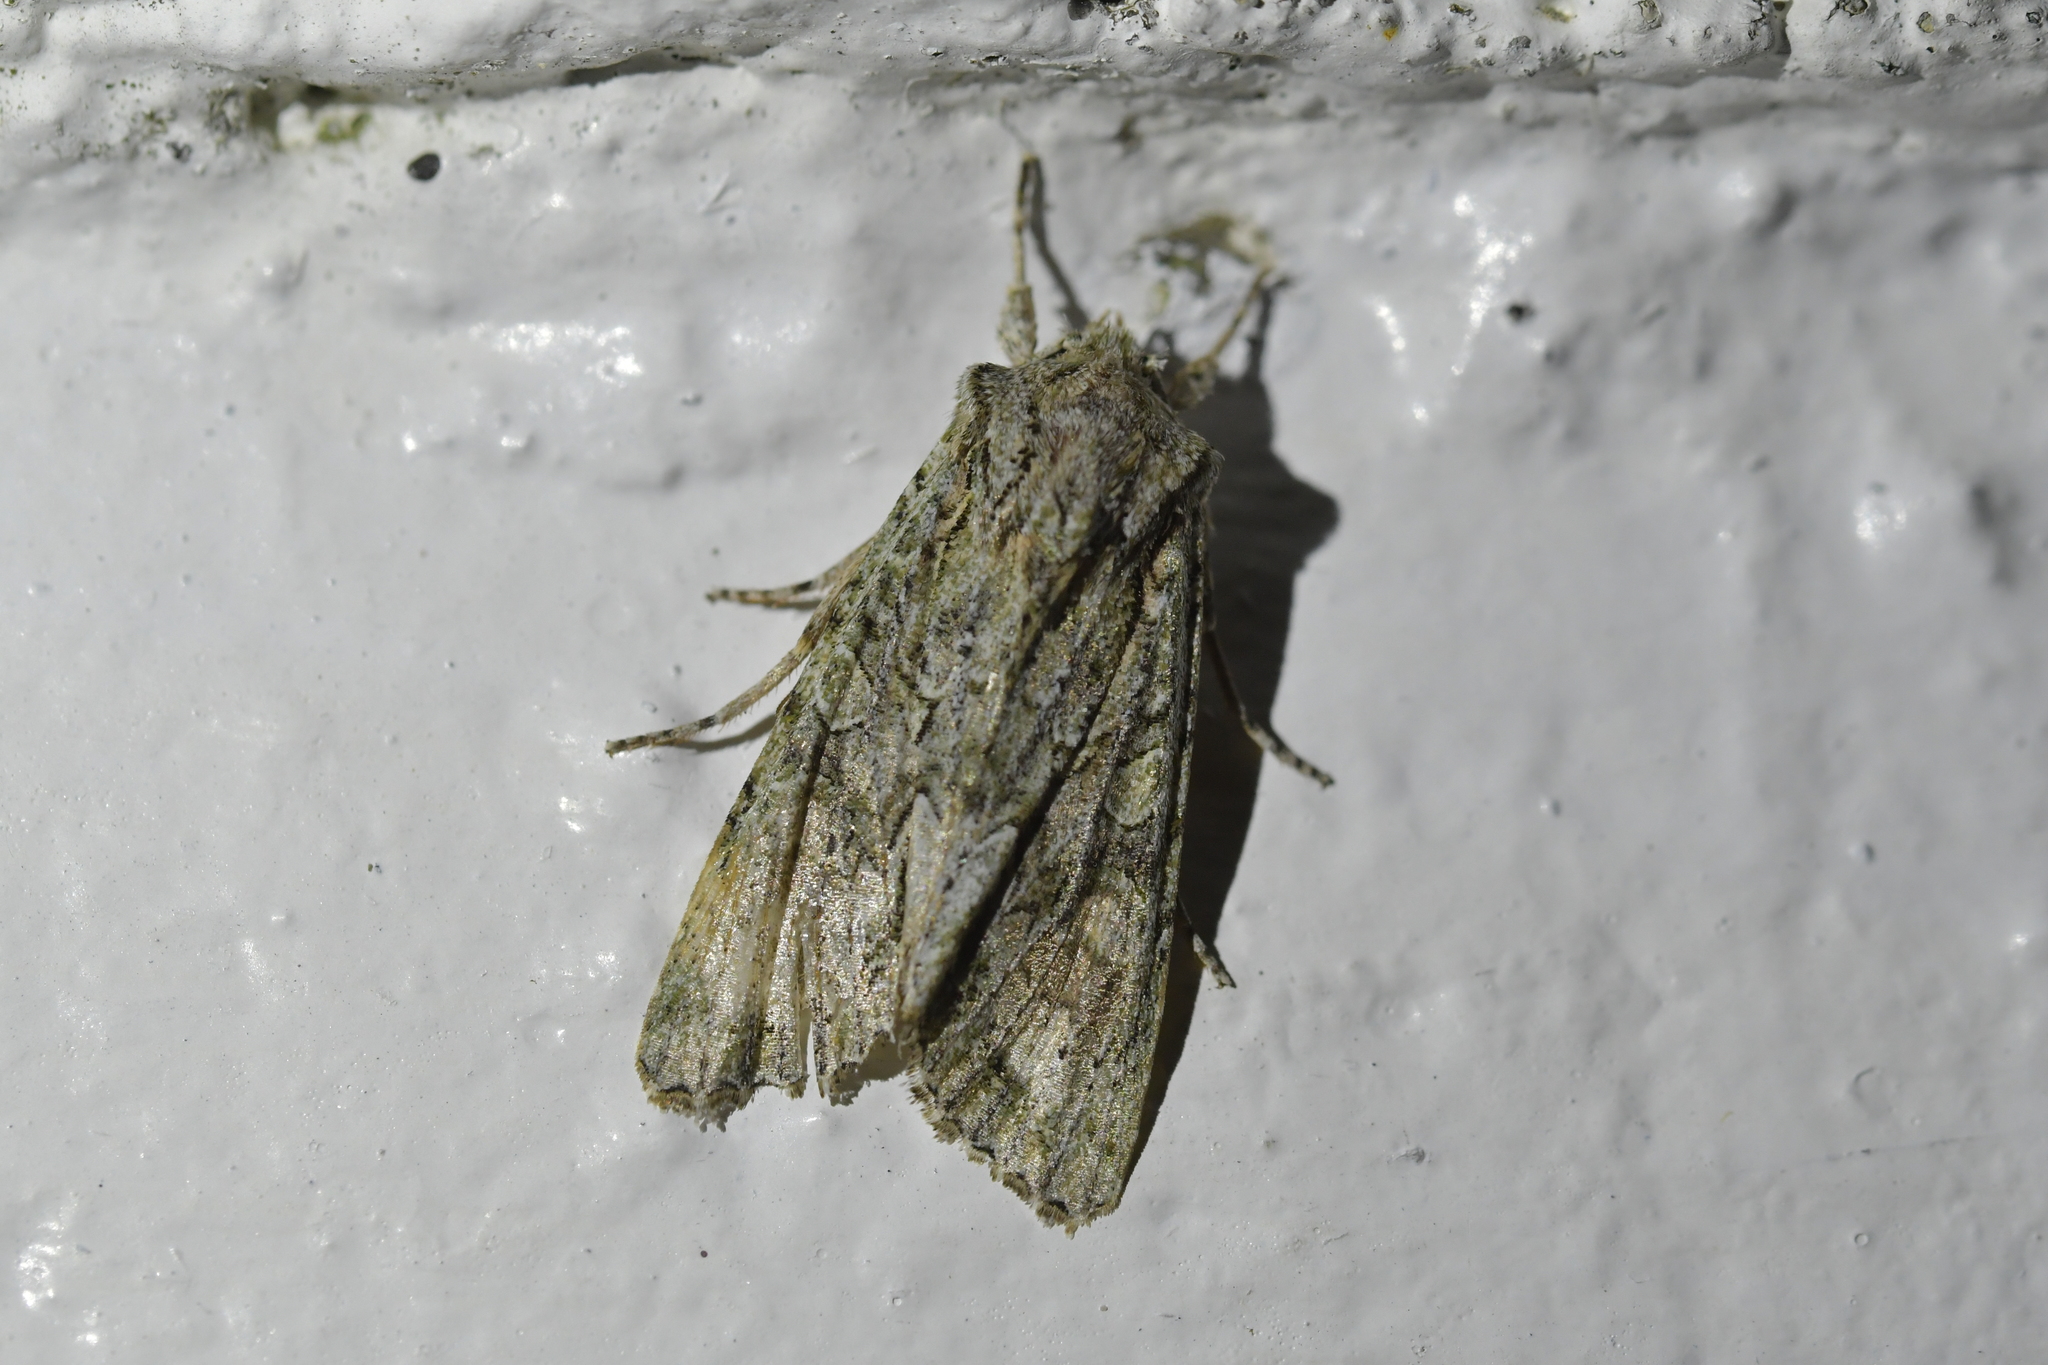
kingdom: Animalia
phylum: Arthropoda
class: Insecta
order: Lepidoptera
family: Noctuidae
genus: Ichneutica
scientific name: Ichneutica mutans
